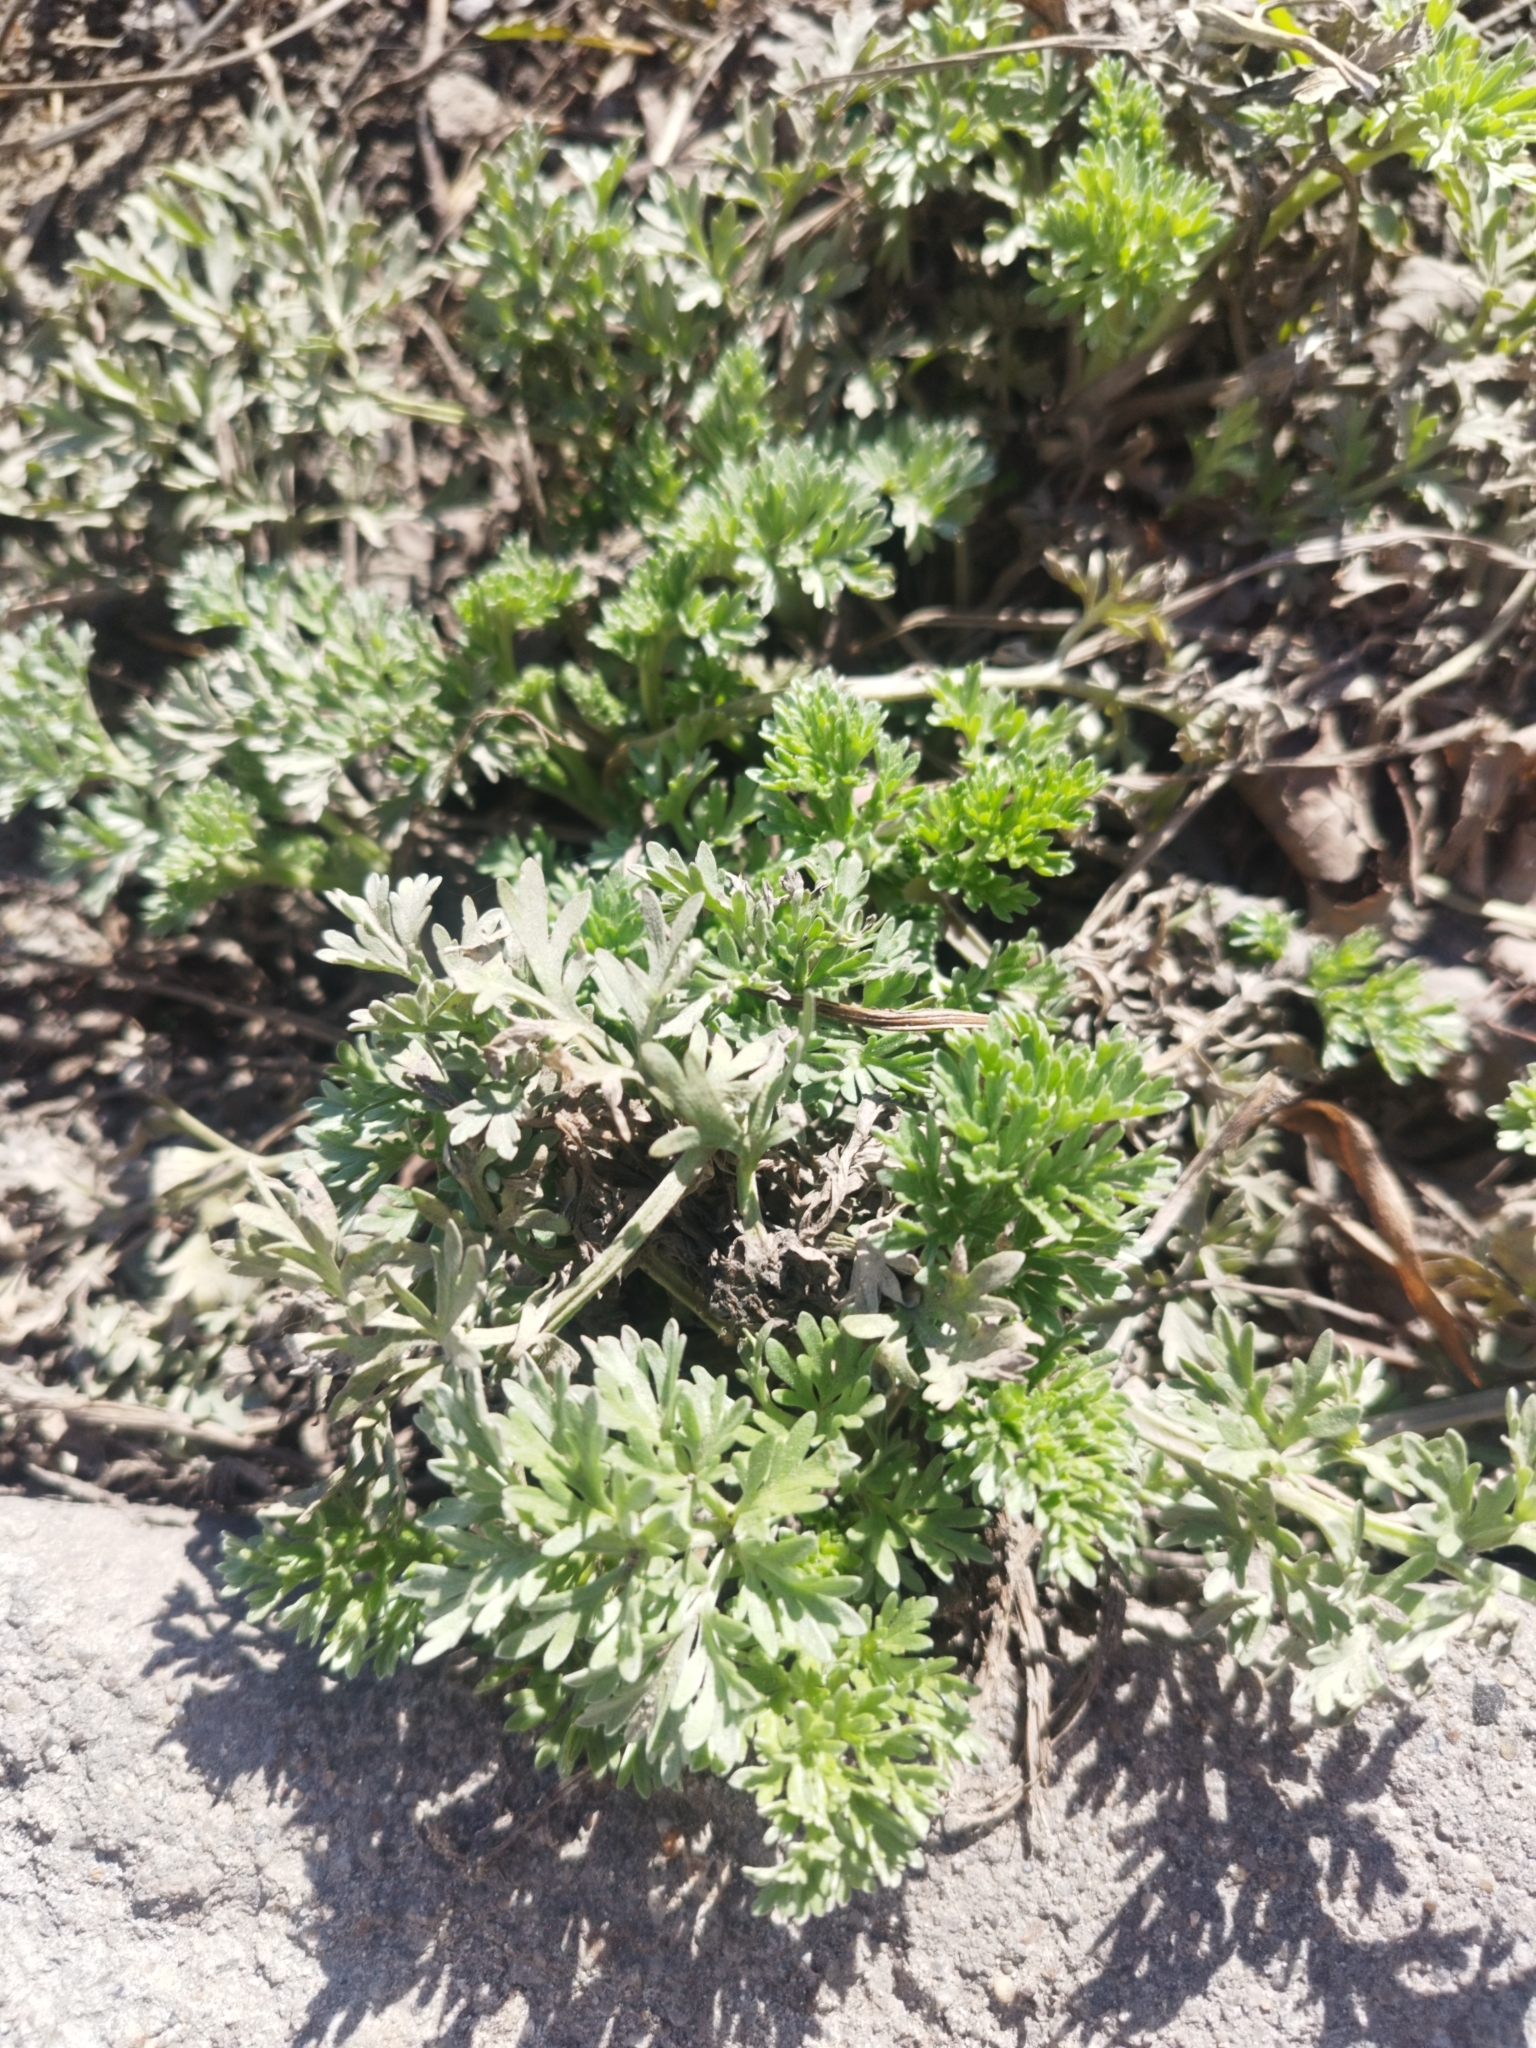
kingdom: Plantae
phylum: Tracheophyta
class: Magnoliopsida
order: Asterales
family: Asteraceae
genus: Artemisia
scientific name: Artemisia absinthium
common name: Wormwood
